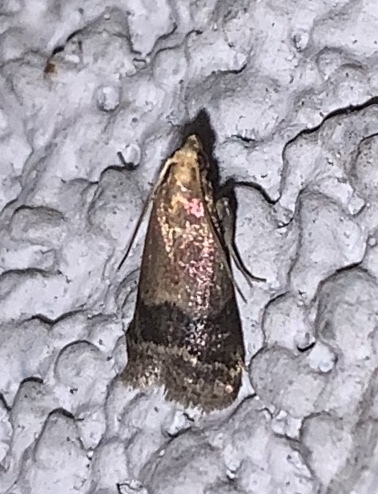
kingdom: Animalia
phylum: Arthropoda
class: Insecta
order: Lepidoptera
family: Pyralidae
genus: Eulogia
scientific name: Eulogia ochrifrontella
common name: Broad-banded eulogia moth
